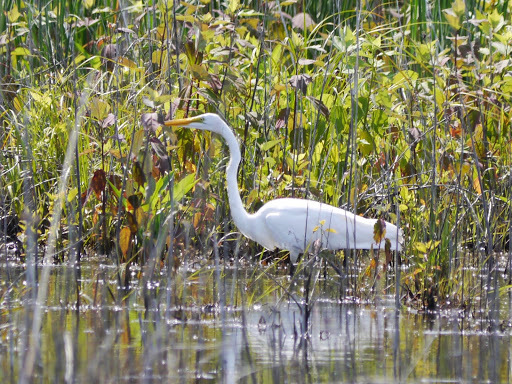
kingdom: Animalia
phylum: Chordata
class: Aves
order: Pelecaniformes
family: Ardeidae
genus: Ardea
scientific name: Ardea alba
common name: Great egret
